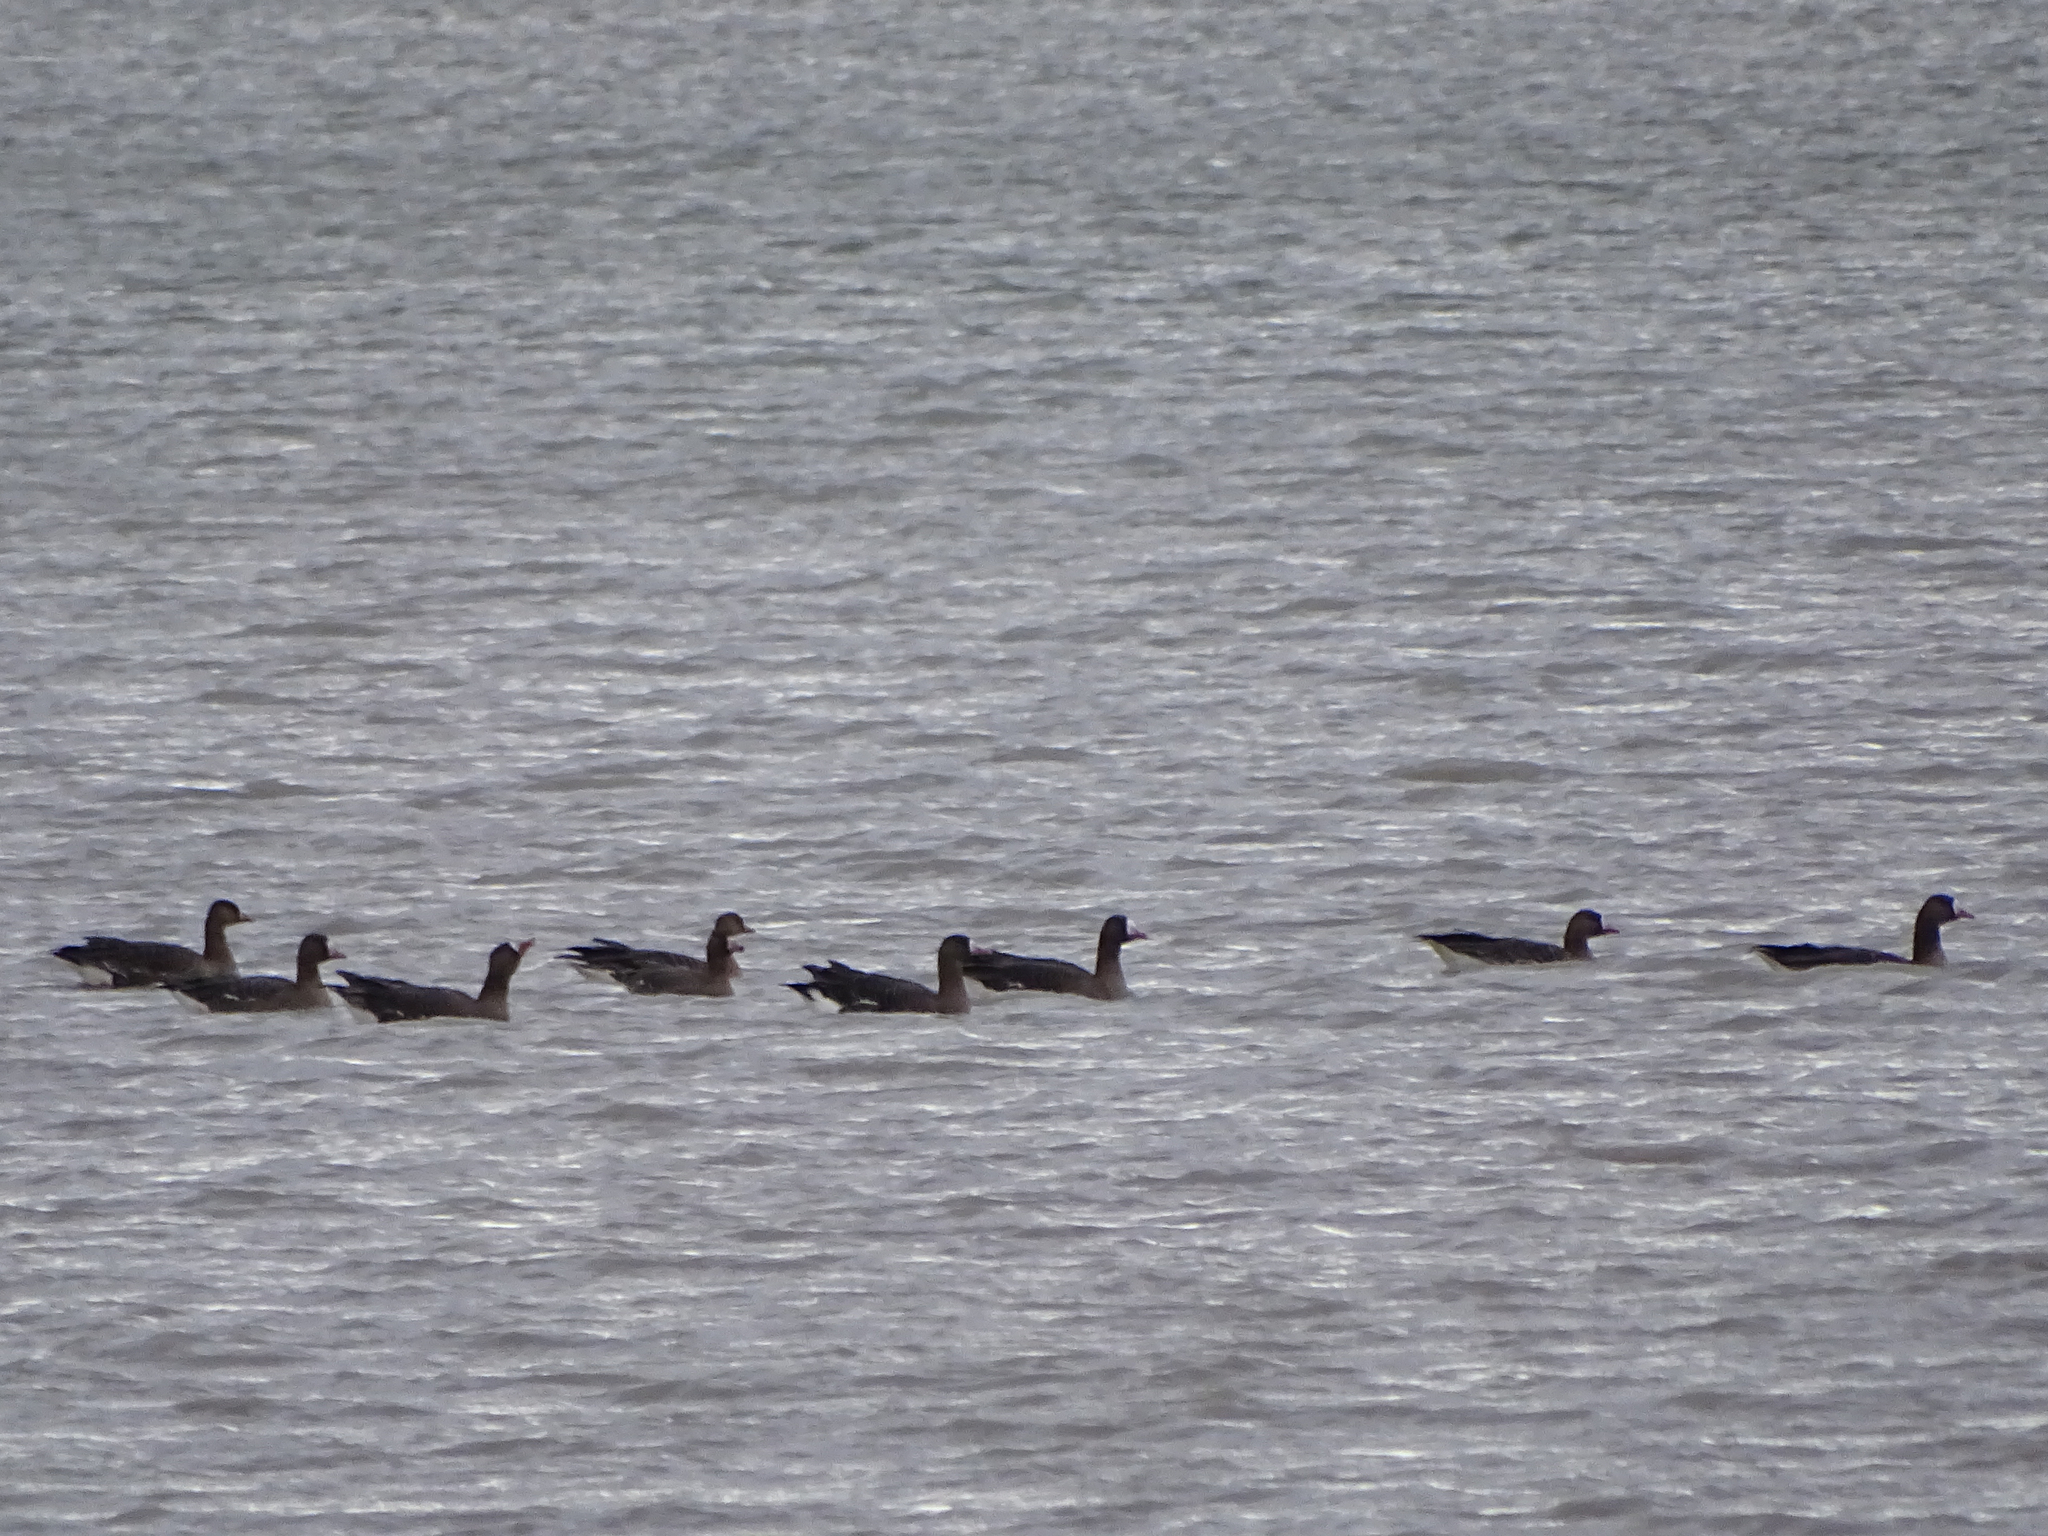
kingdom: Animalia
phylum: Chordata
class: Aves
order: Anseriformes
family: Anatidae
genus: Anser
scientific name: Anser albifrons
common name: Greater white-fronted goose
